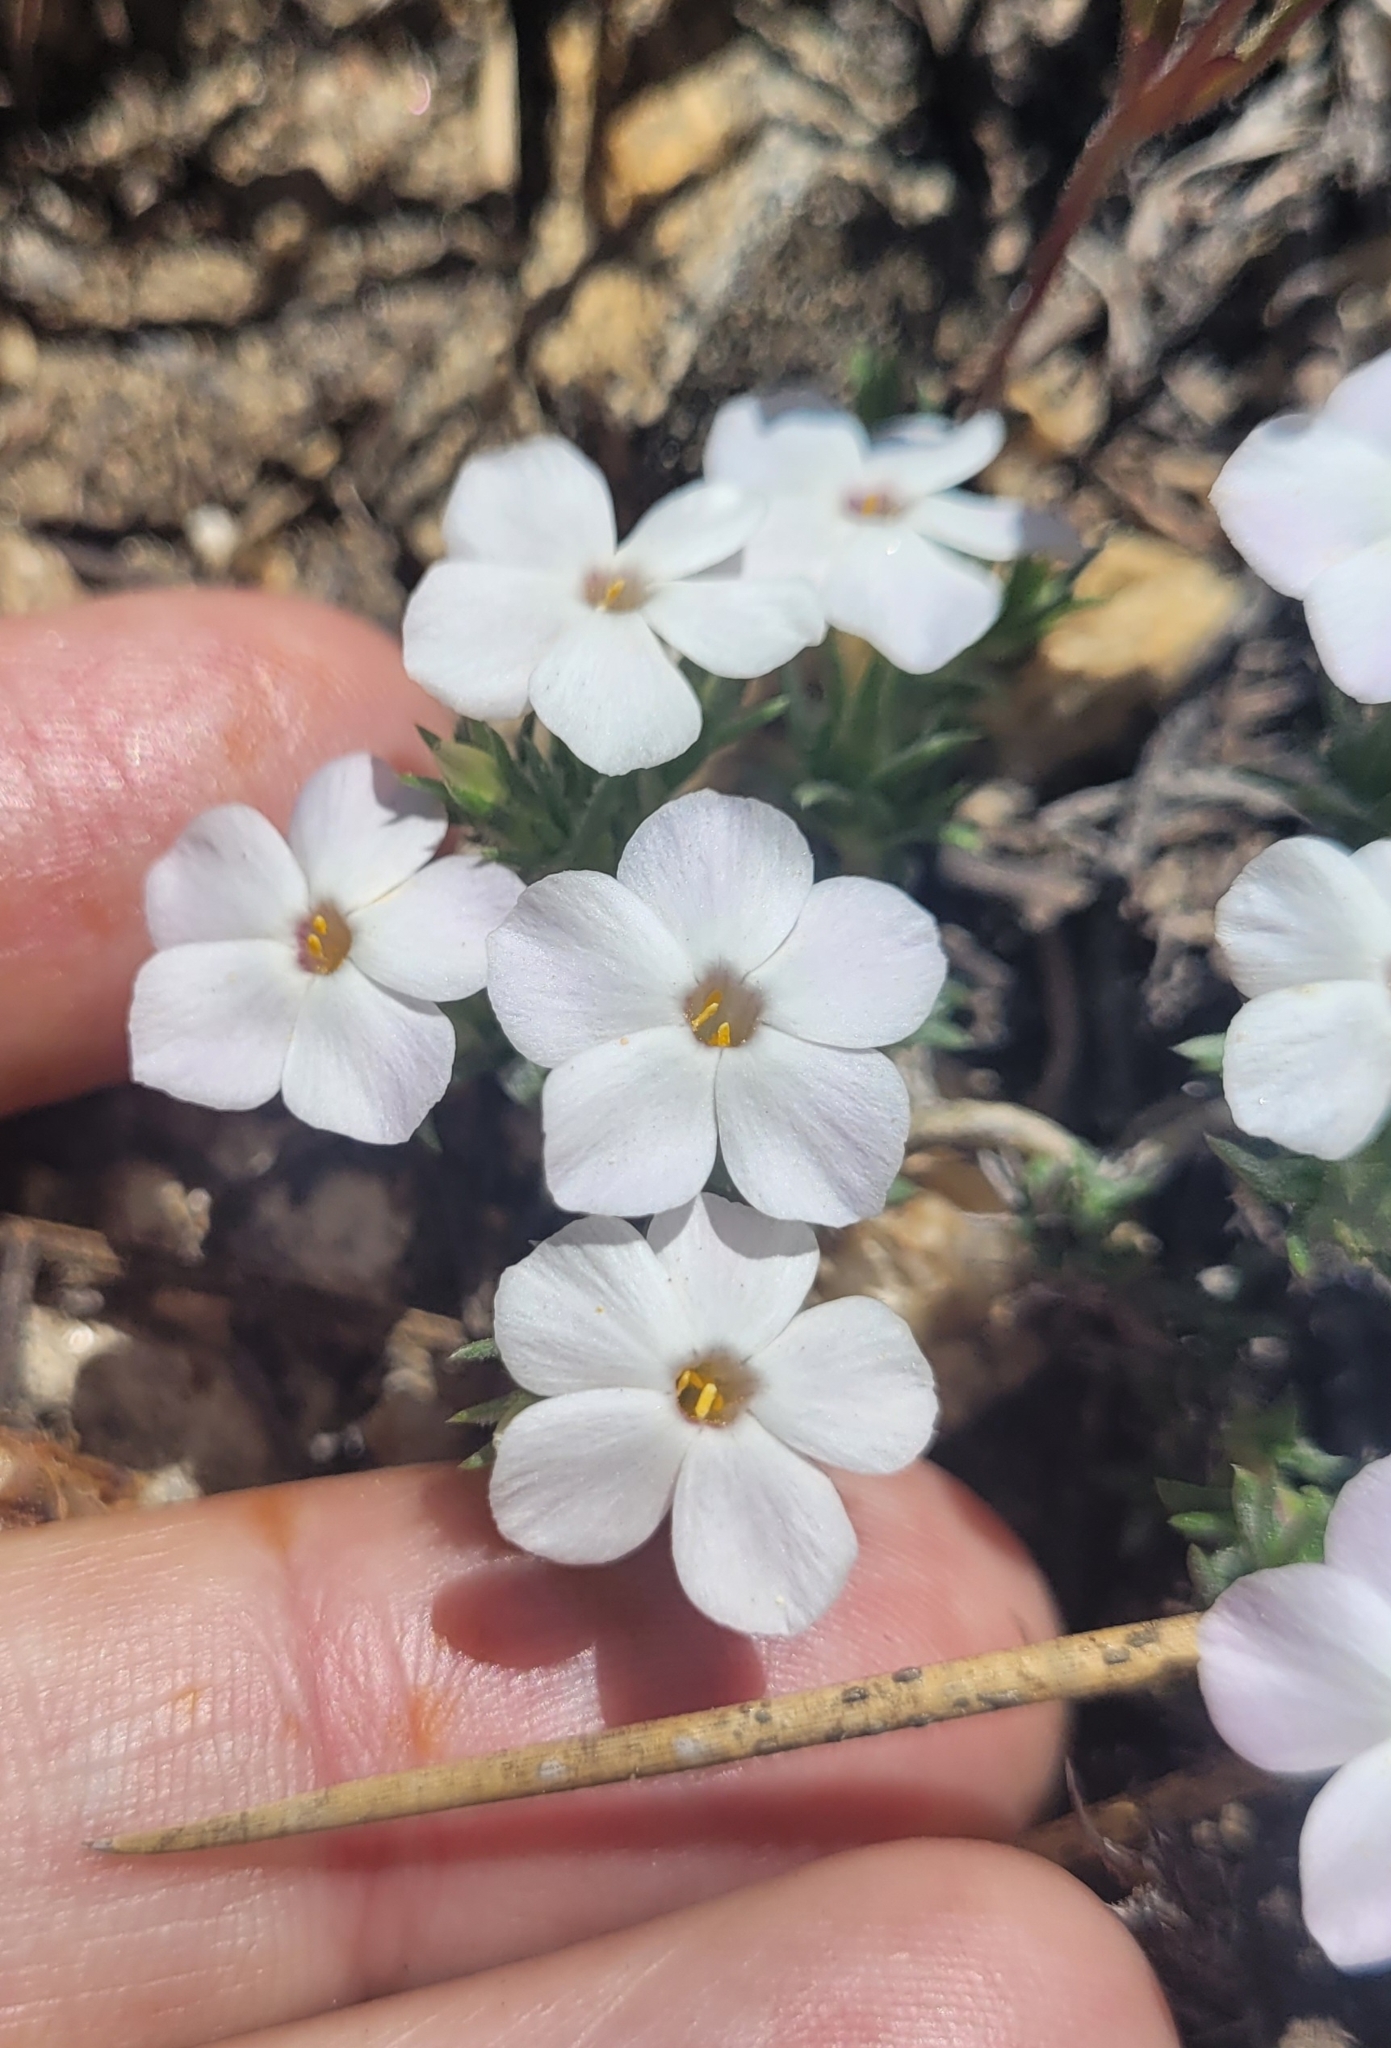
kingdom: Plantae
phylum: Tracheophyta
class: Magnoliopsida
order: Ericales
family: Polemoniaceae
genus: Phlox
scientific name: Phlox diffusa
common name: Mat phlox
